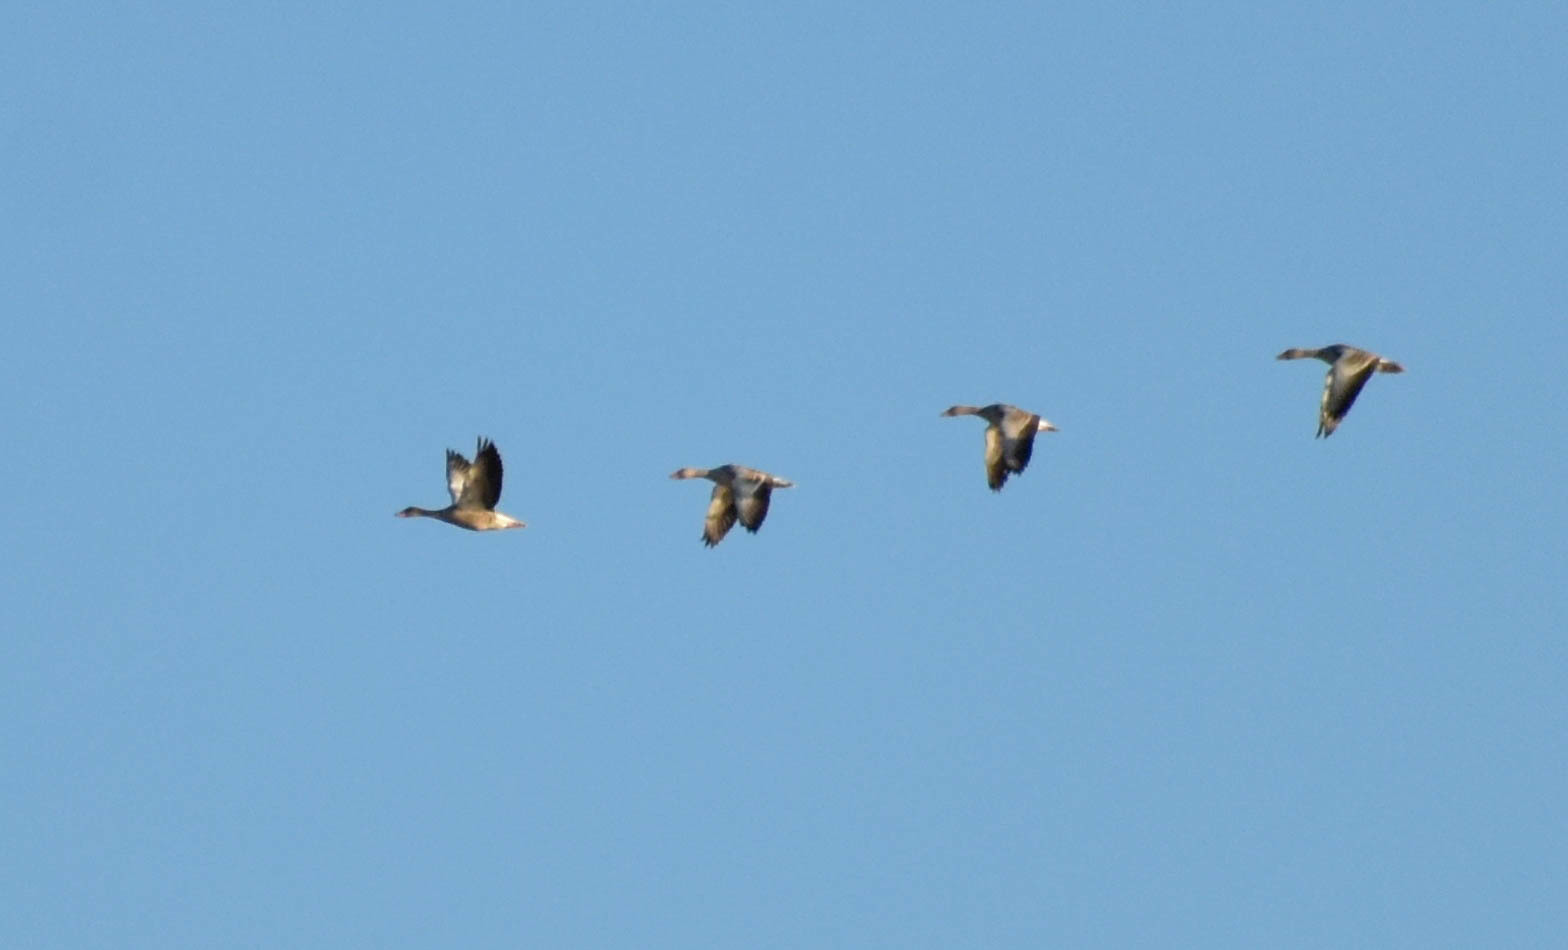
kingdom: Animalia
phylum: Chordata
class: Aves
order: Anseriformes
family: Anatidae
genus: Anser
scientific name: Anser anser
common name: Greylag goose
